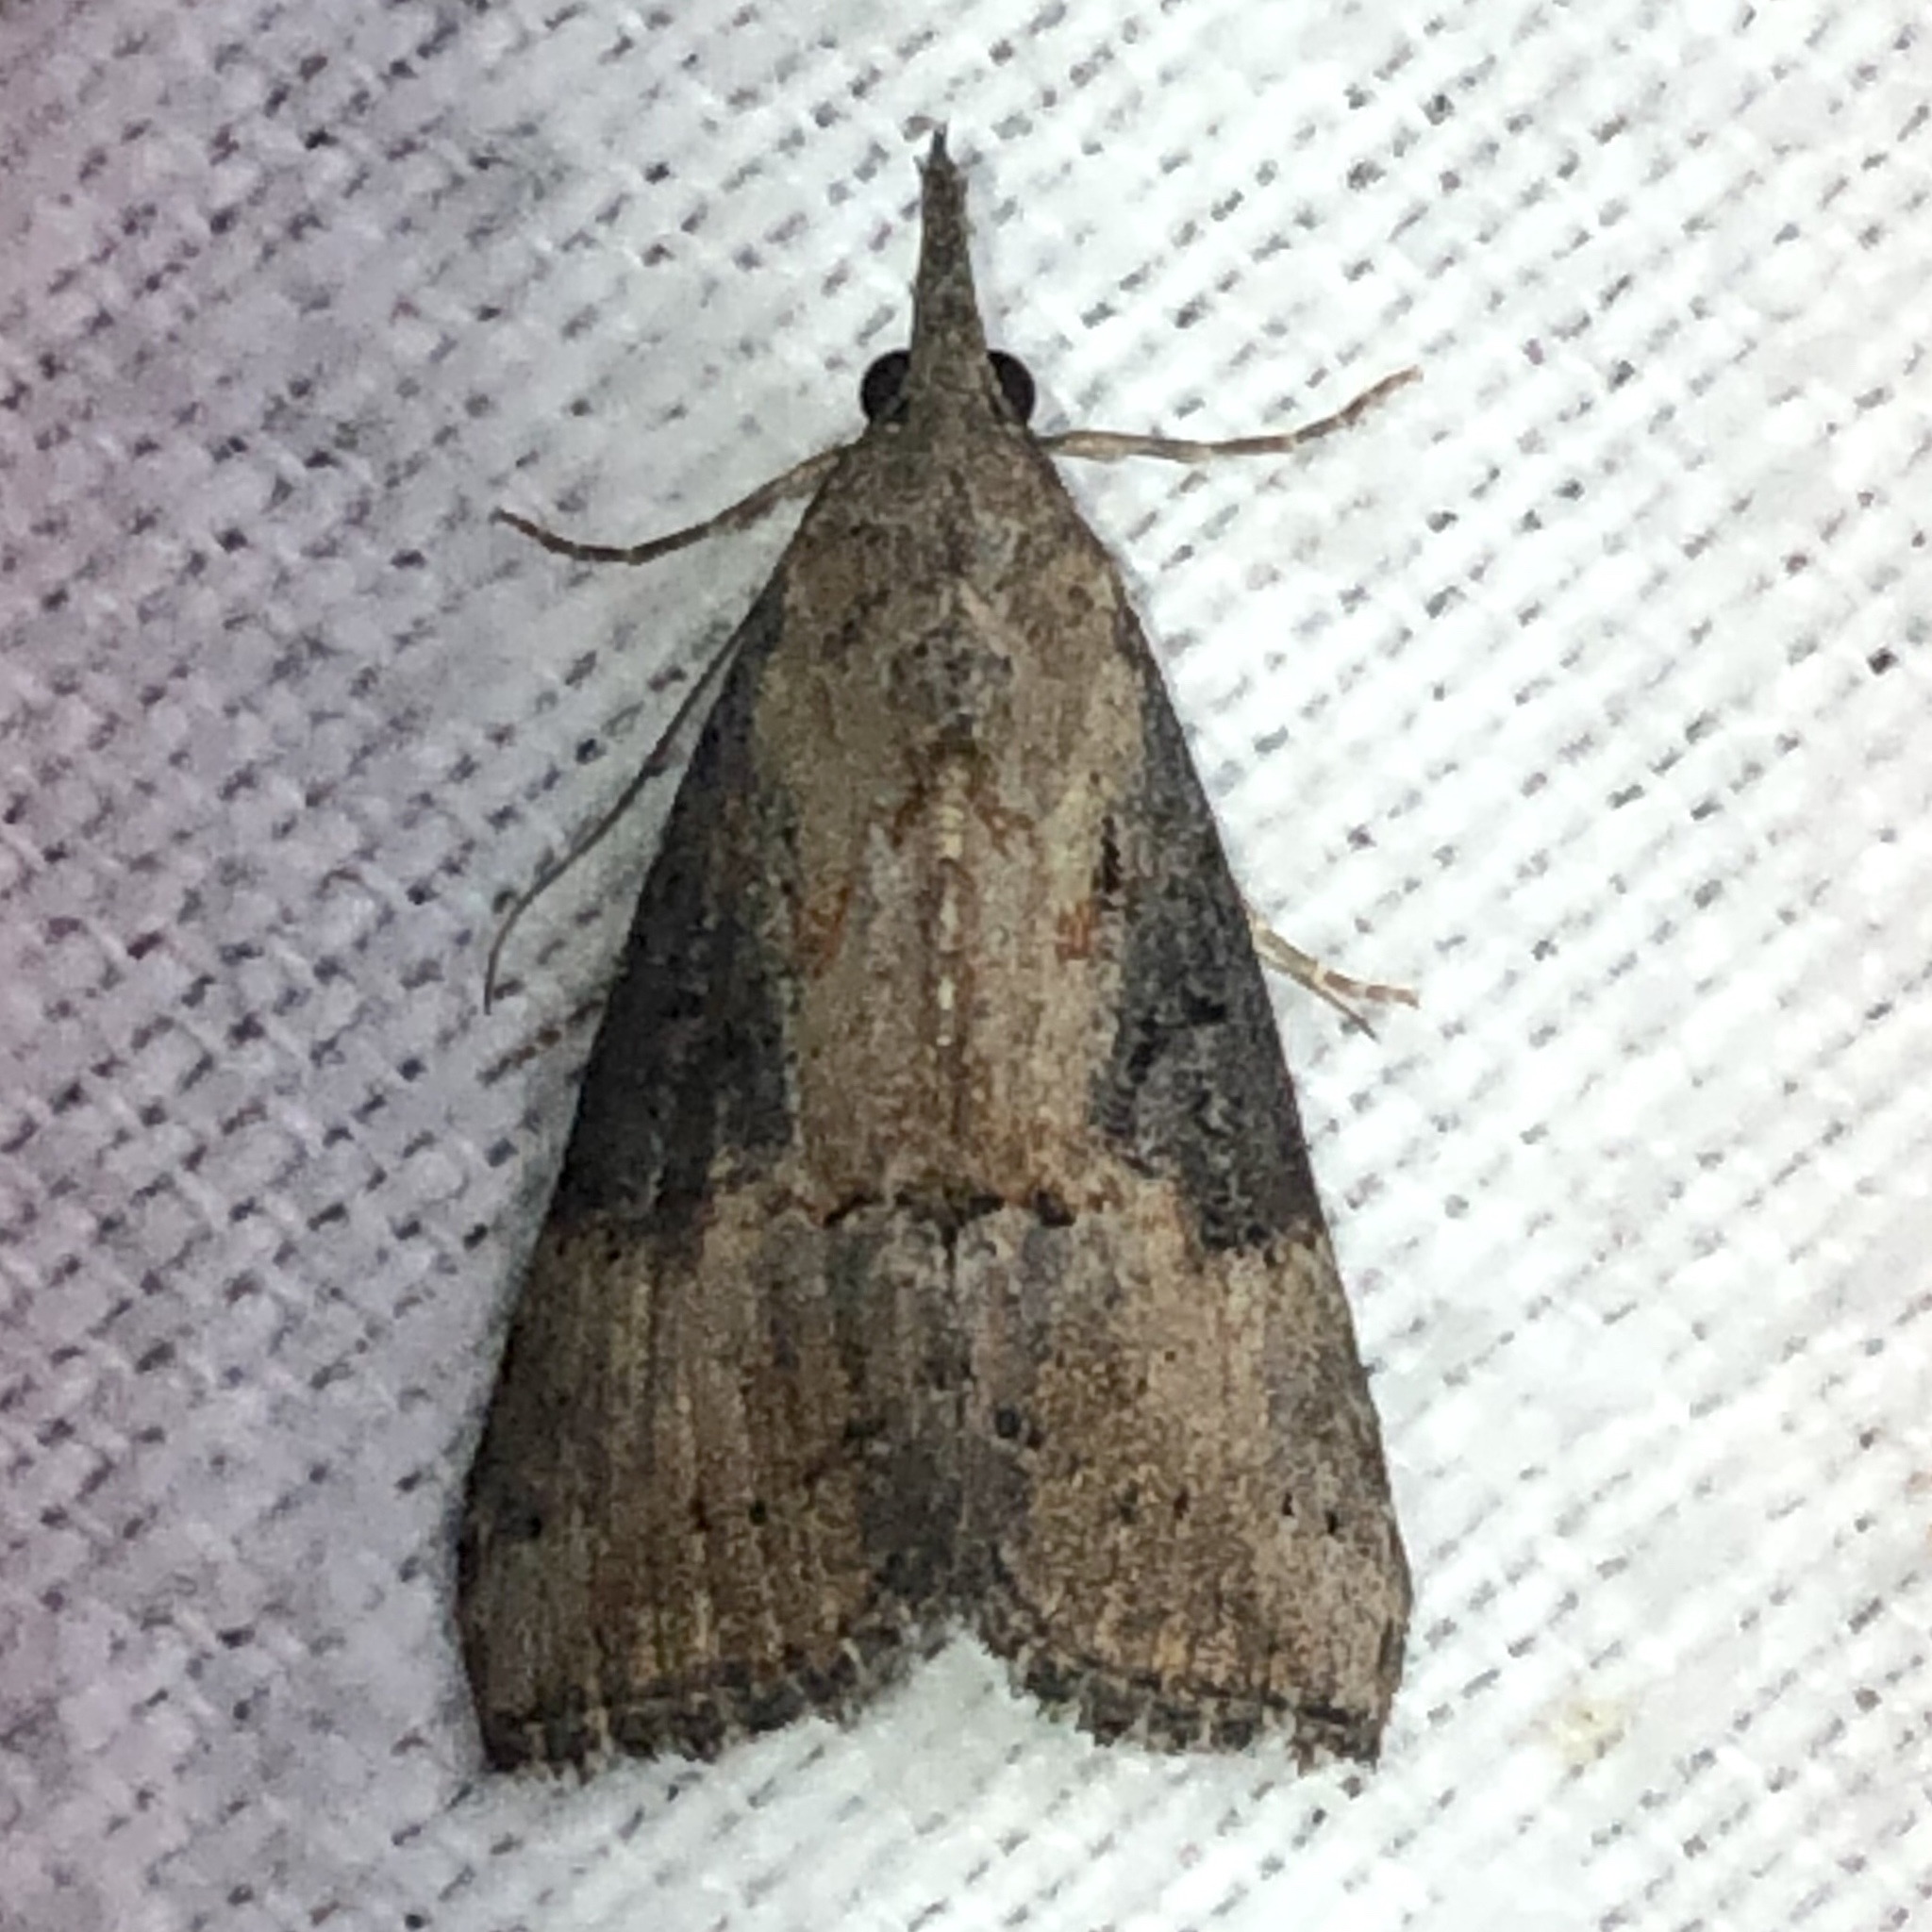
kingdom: Animalia
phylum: Arthropoda
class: Insecta
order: Lepidoptera
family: Erebidae
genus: Hypena
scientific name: Hypena scabra
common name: Green cloverworm
